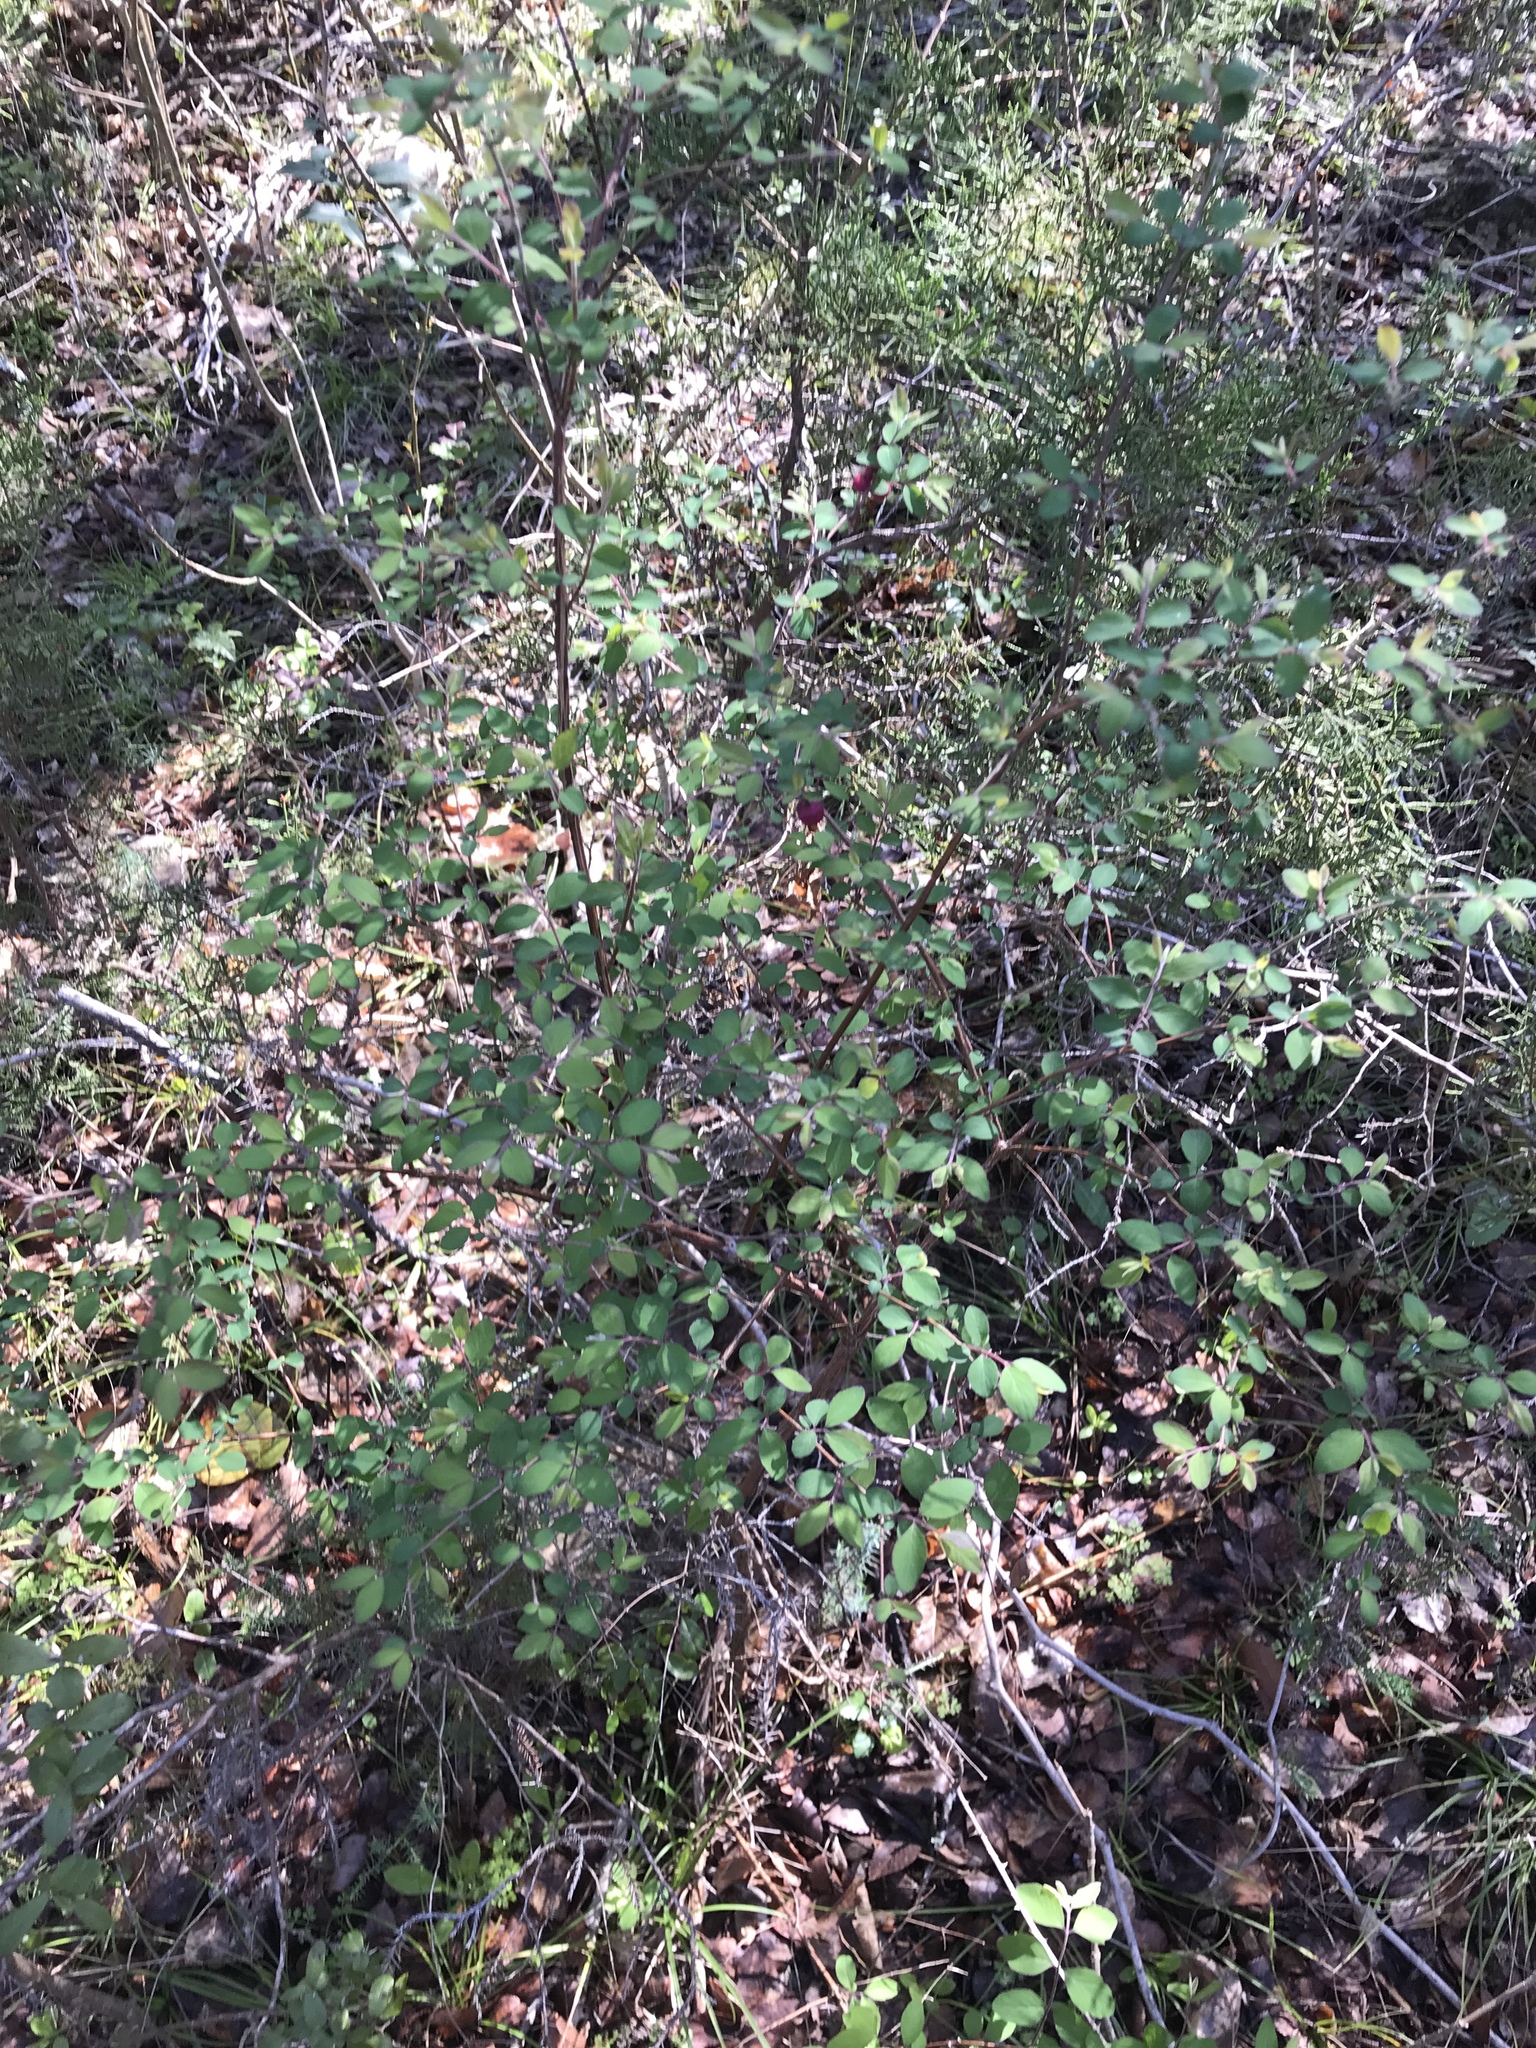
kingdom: Plantae
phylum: Tracheophyta
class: Magnoliopsida
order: Dipsacales
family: Caprifoliaceae
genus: Symphoricarpos
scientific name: Symphoricarpos orbiculatus
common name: Coralberry
